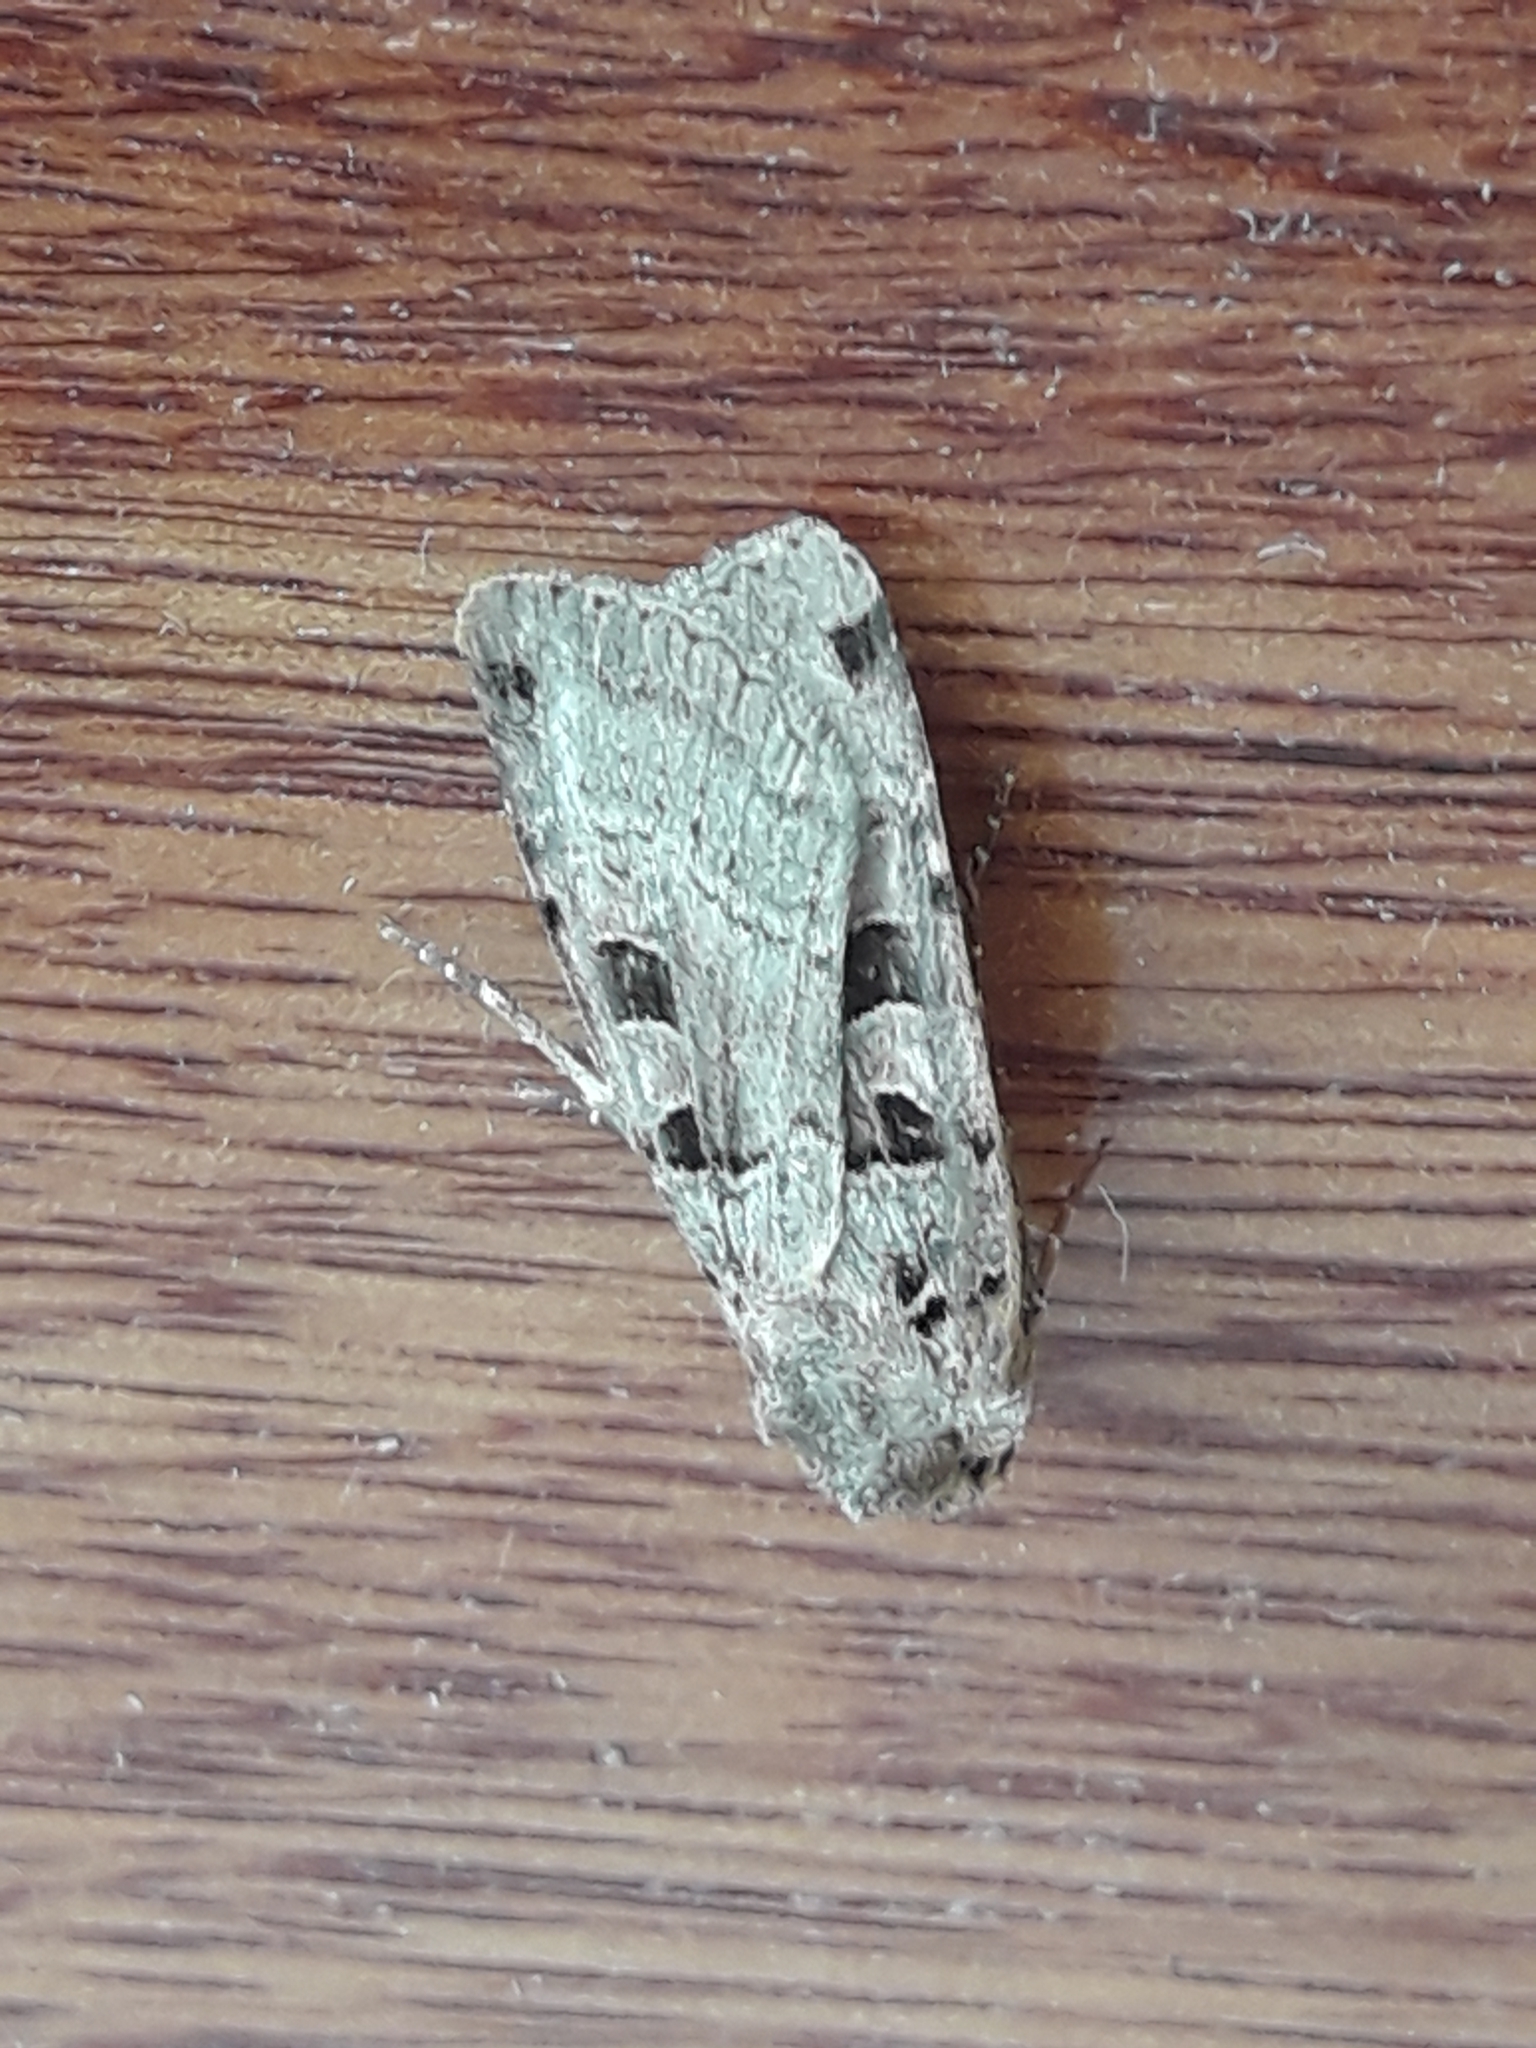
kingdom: Animalia
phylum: Arthropoda
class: Insecta
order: Lepidoptera
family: Noctuidae
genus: Xestia
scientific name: Xestia triangulum
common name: Double square-spot
